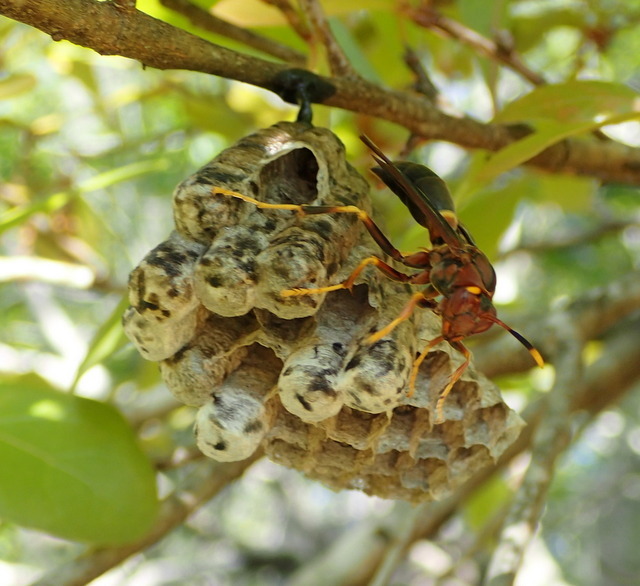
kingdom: Animalia
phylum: Arthropoda
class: Insecta
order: Hymenoptera
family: Eumenidae
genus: Polistes
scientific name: Polistes annularis
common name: Ringed paper wasp
